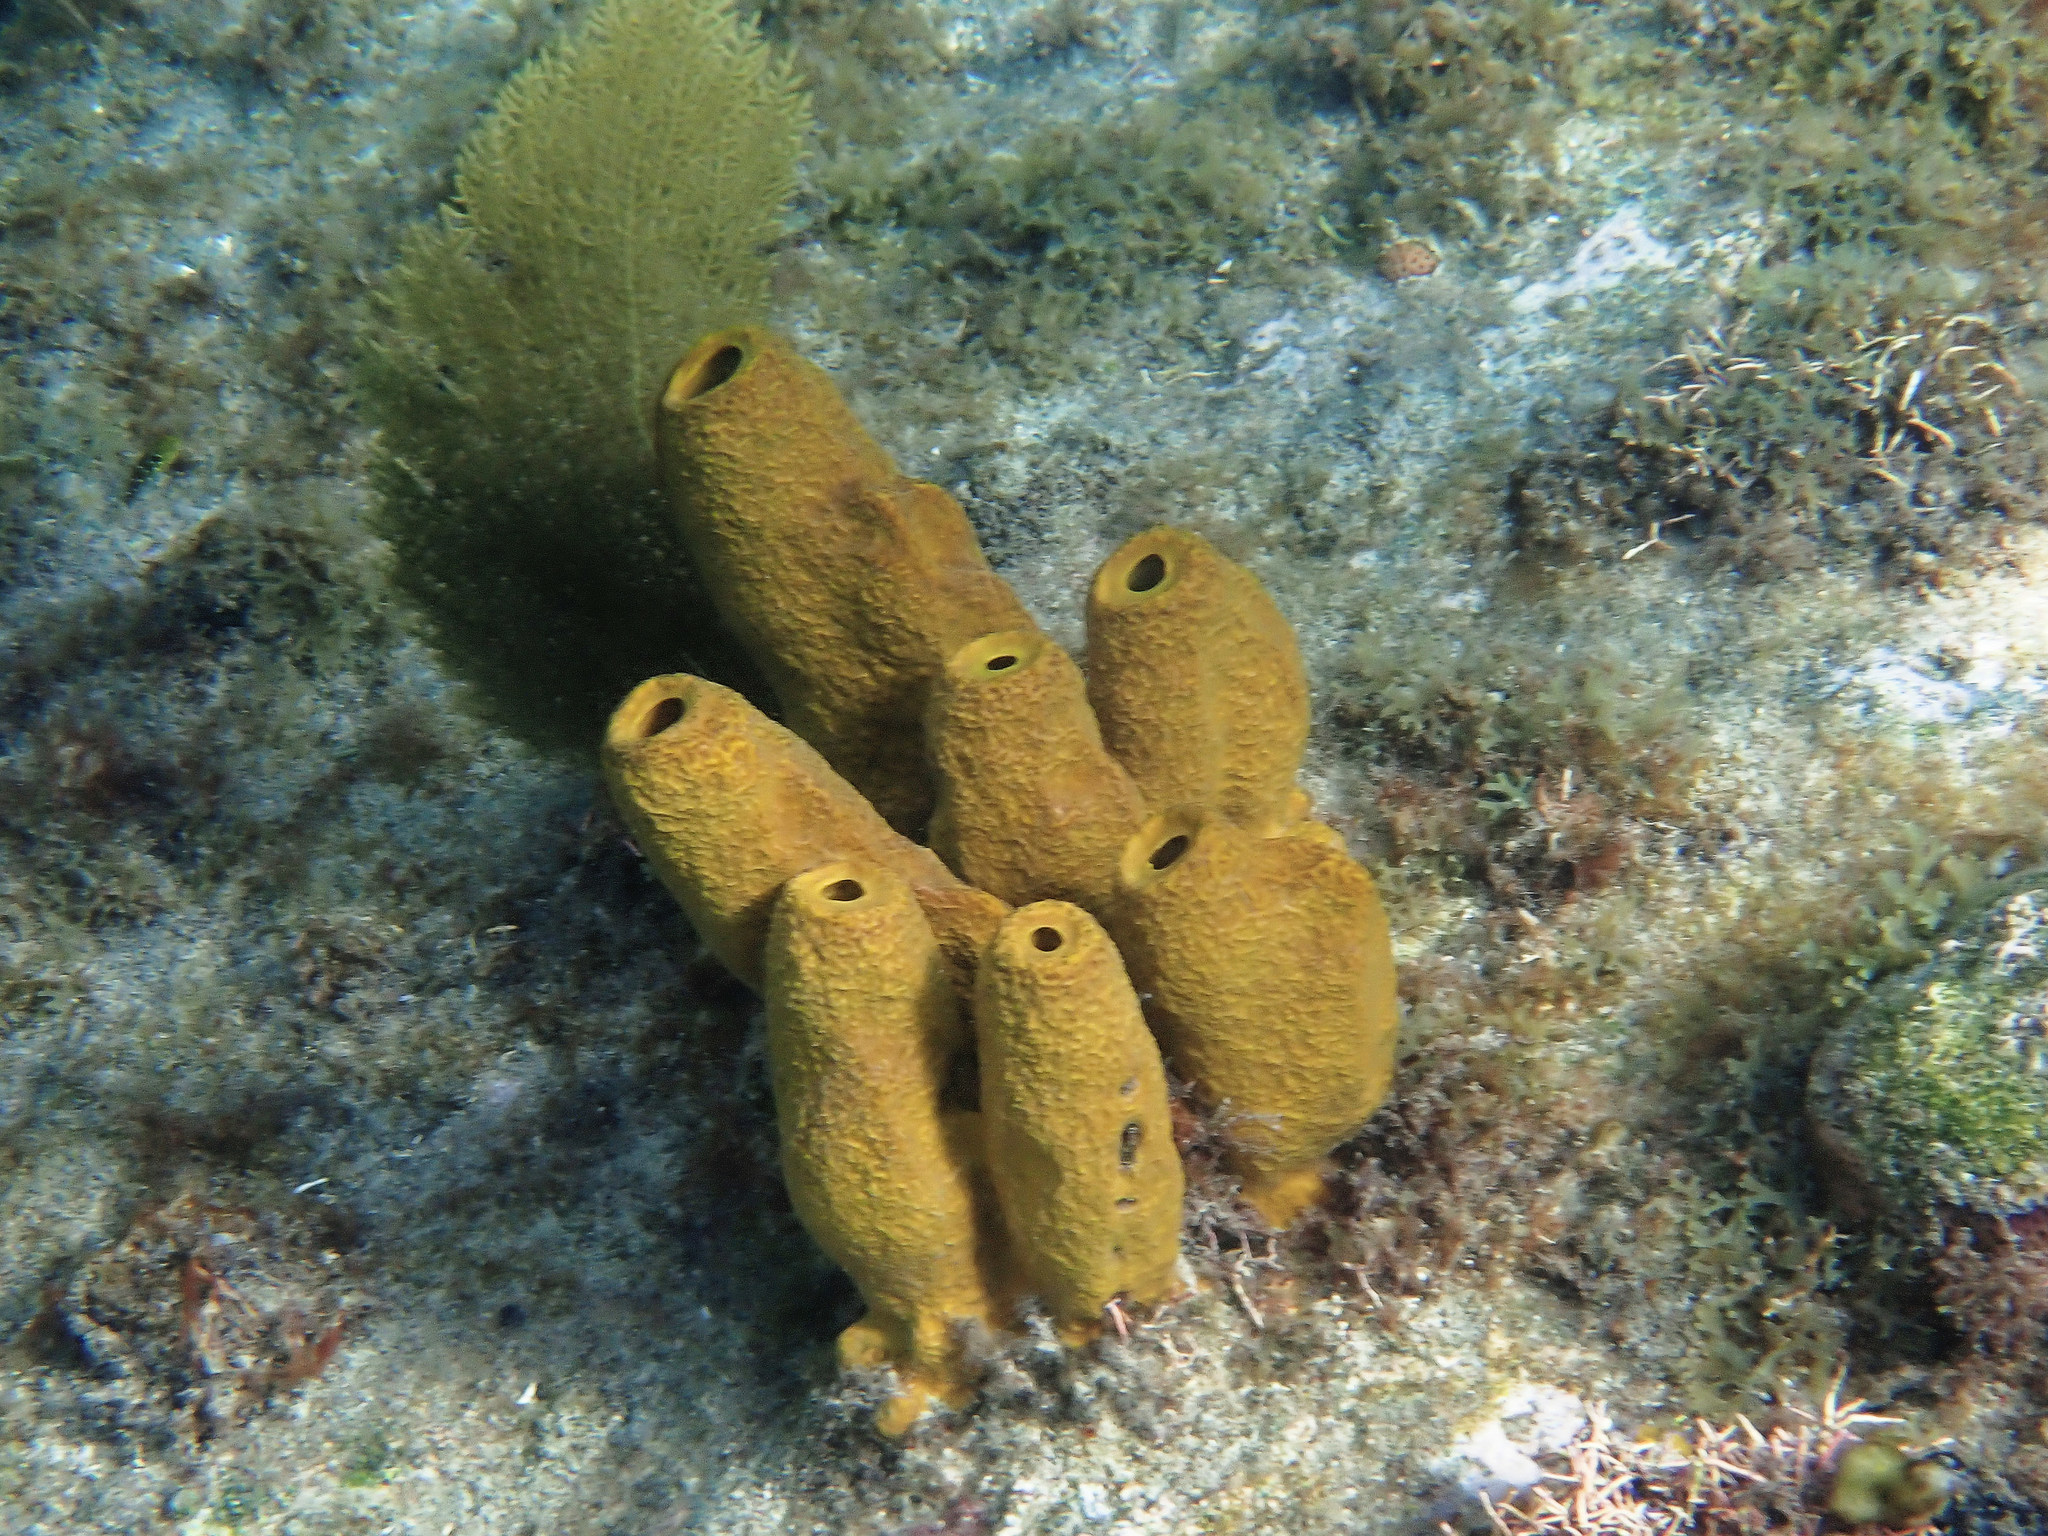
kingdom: Animalia
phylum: Porifera
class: Demospongiae
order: Verongiida
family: Aplysinidae
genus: Aplysina
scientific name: Aplysina fistularis
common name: Candle sponge
